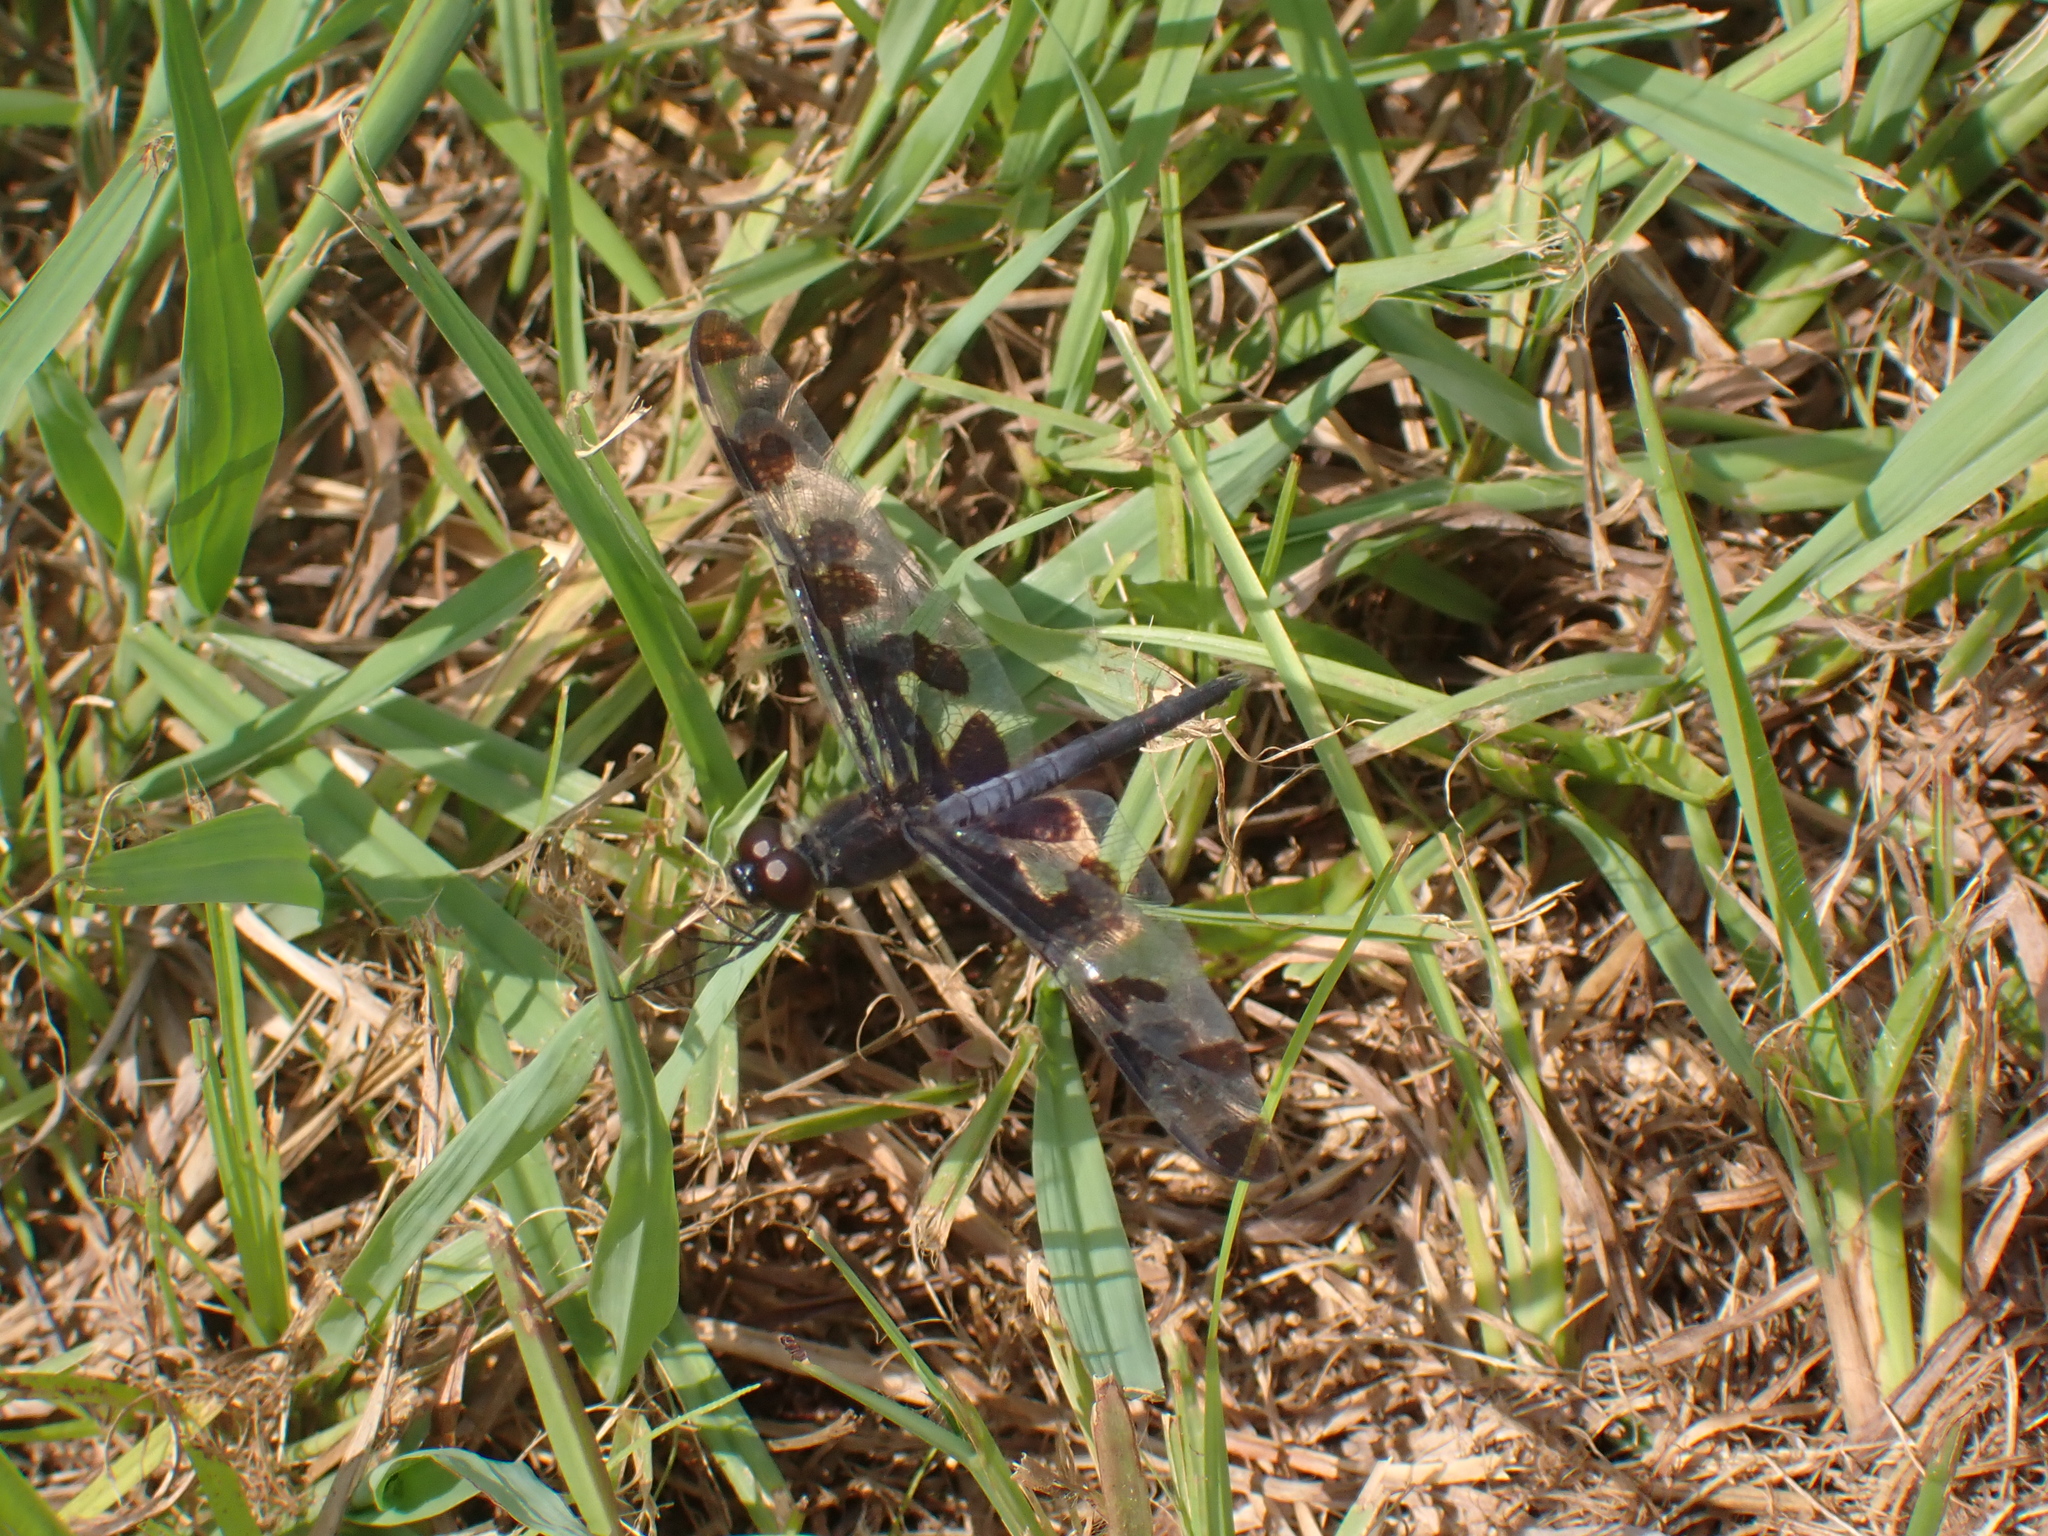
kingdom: Animalia
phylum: Arthropoda
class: Insecta
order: Odonata
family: Libellulidae
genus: Celithemis
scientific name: Celithemis fasciata
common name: Banded pennant
